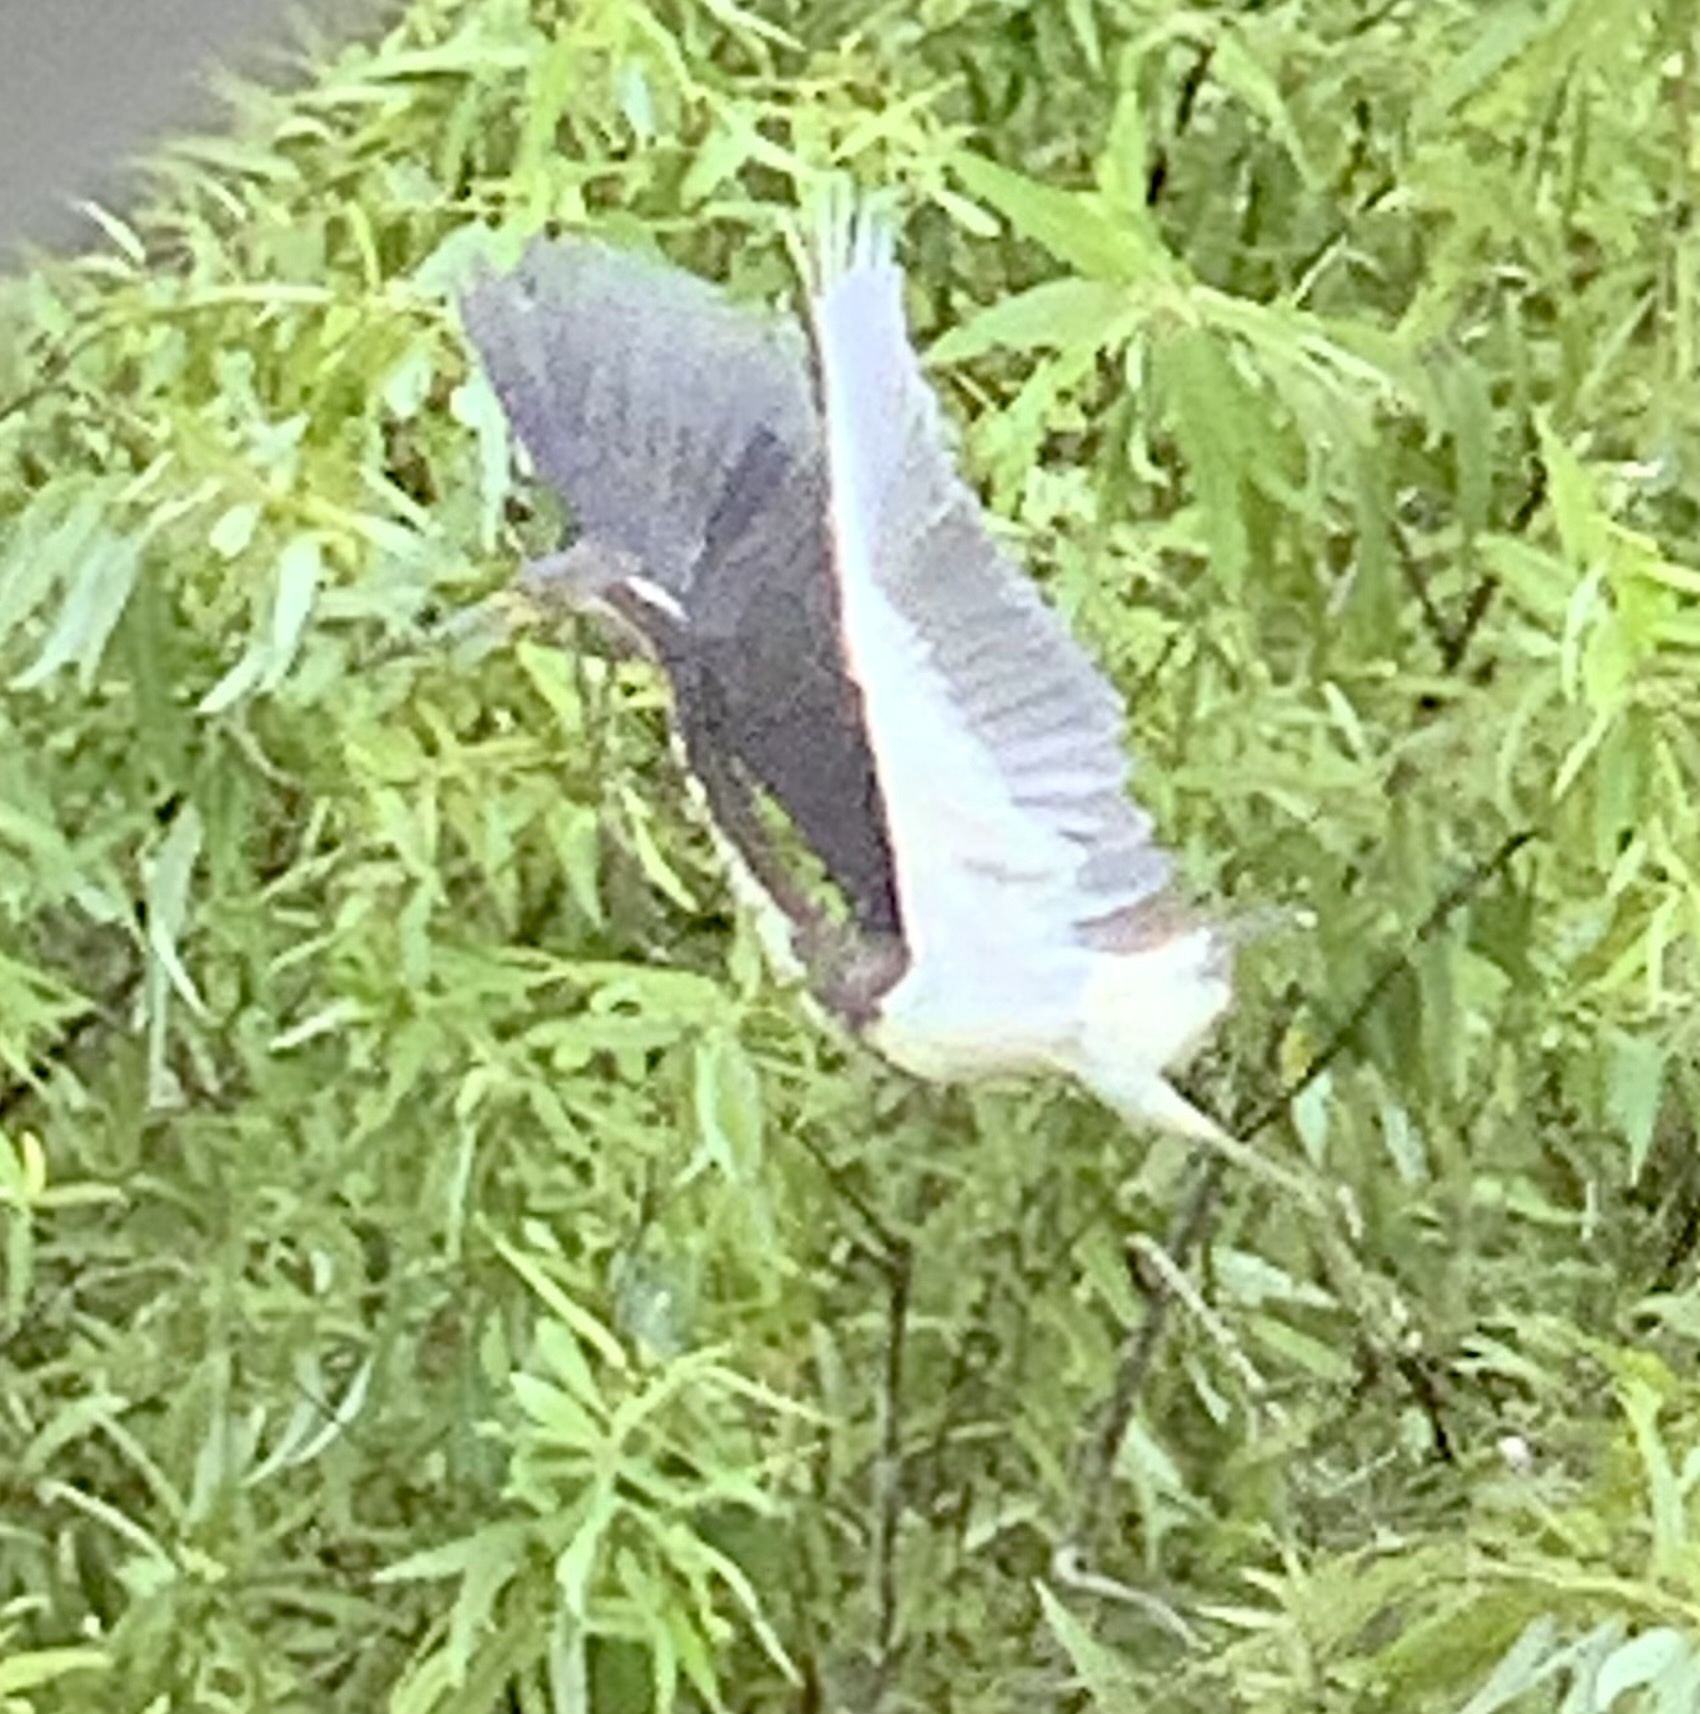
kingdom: Animalia
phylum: Chordata
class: Aves
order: Pelecaniformes
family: Ardeidae
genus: Egretta
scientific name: Egretta tricolor
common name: Tricolored heron
